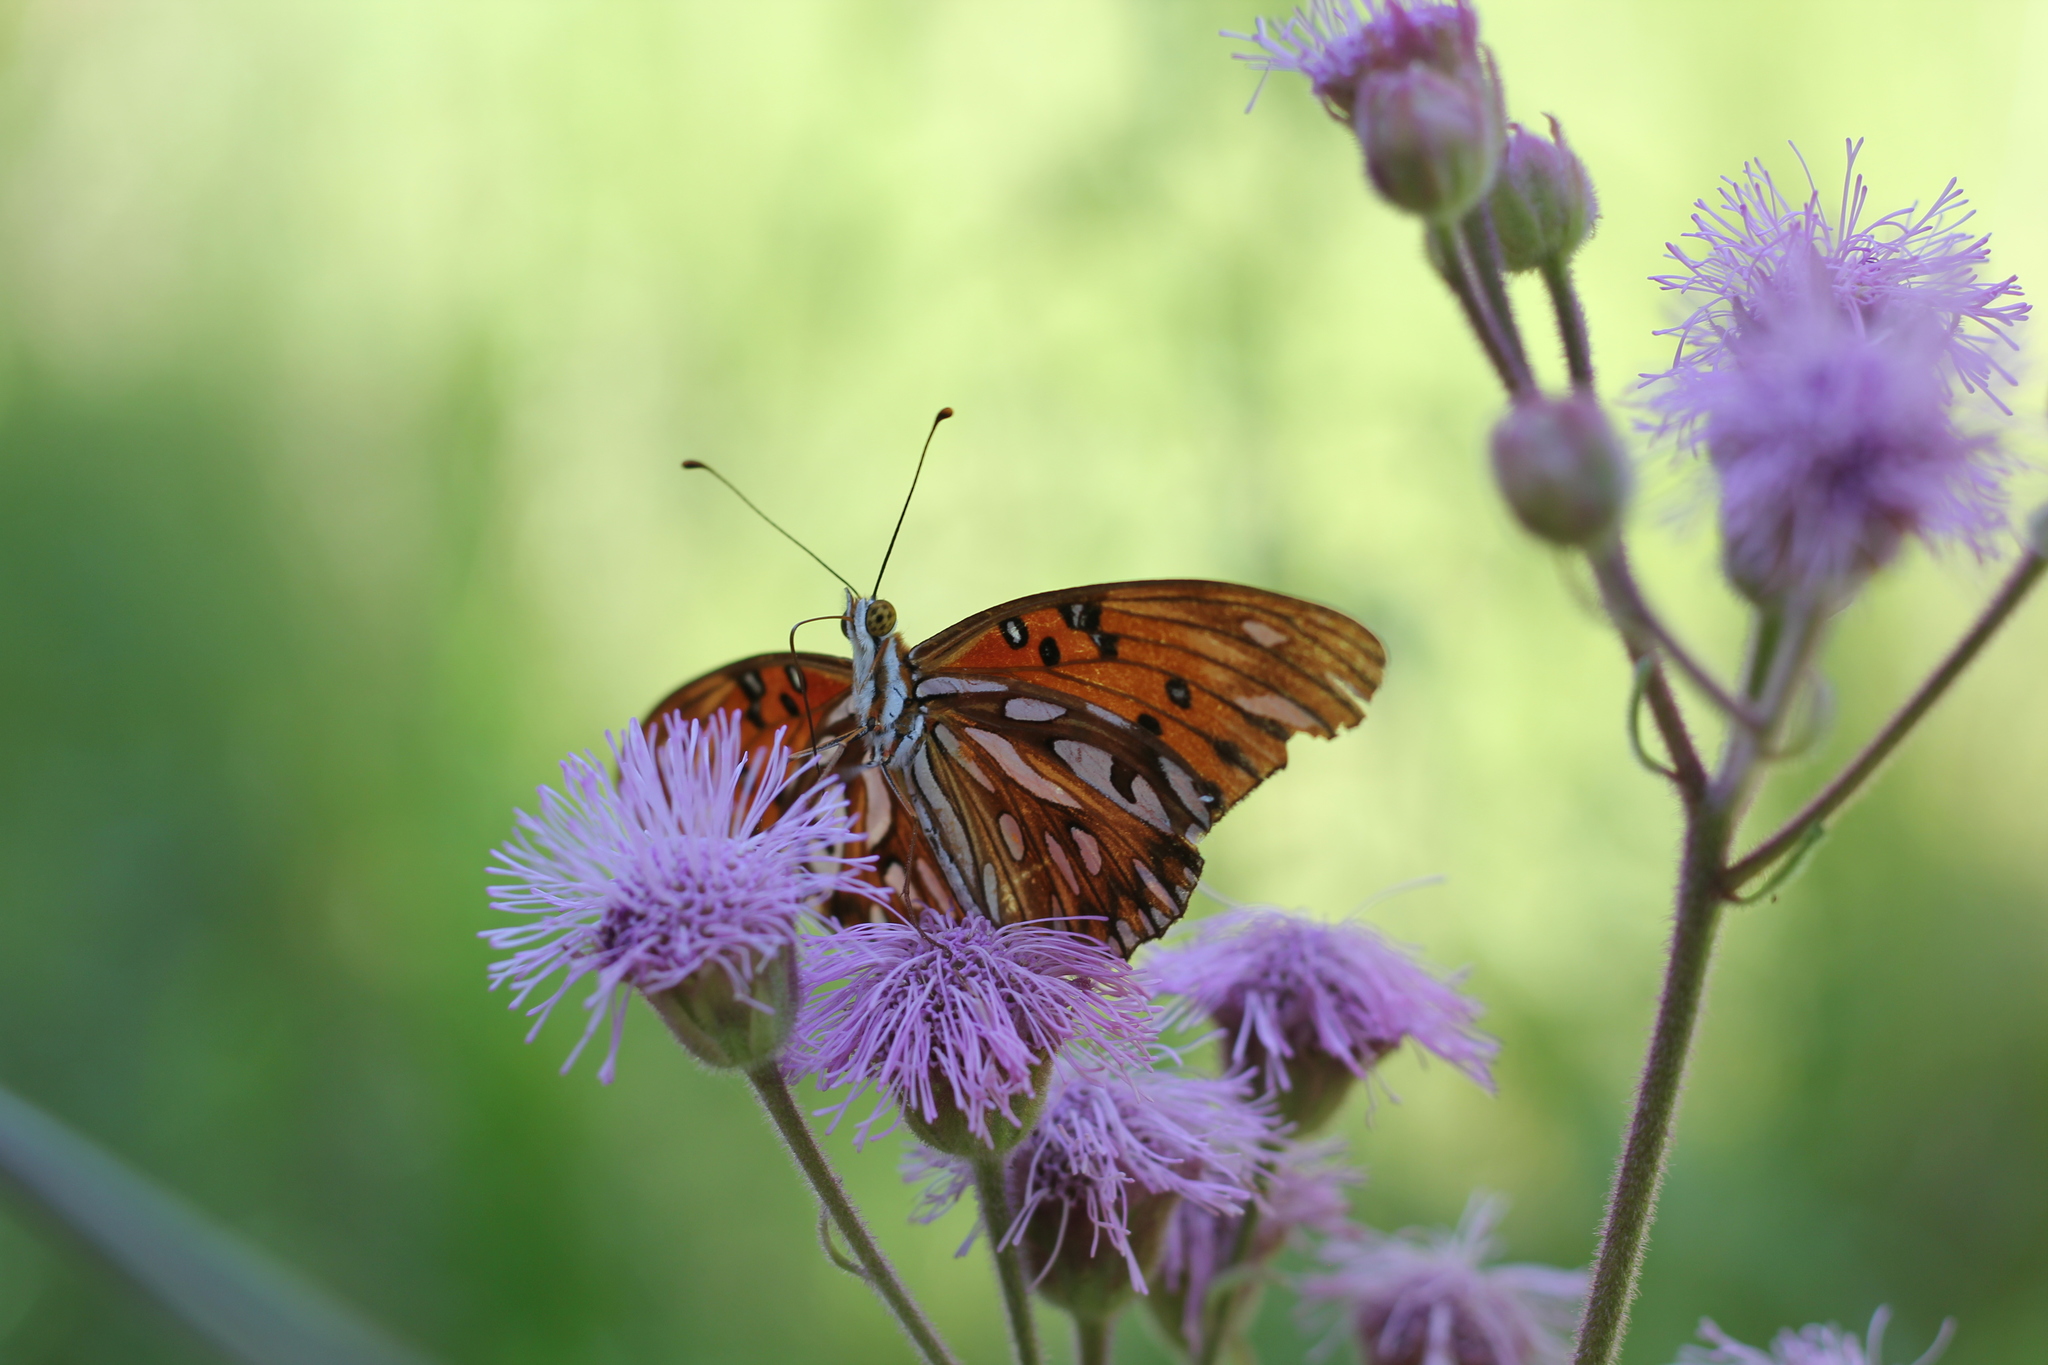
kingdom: Animalia
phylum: Arthropoda
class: Insecta
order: Lepidoptera
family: Nymphalidae
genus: Dione
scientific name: Dione vanillae
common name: Gulf fritillary
